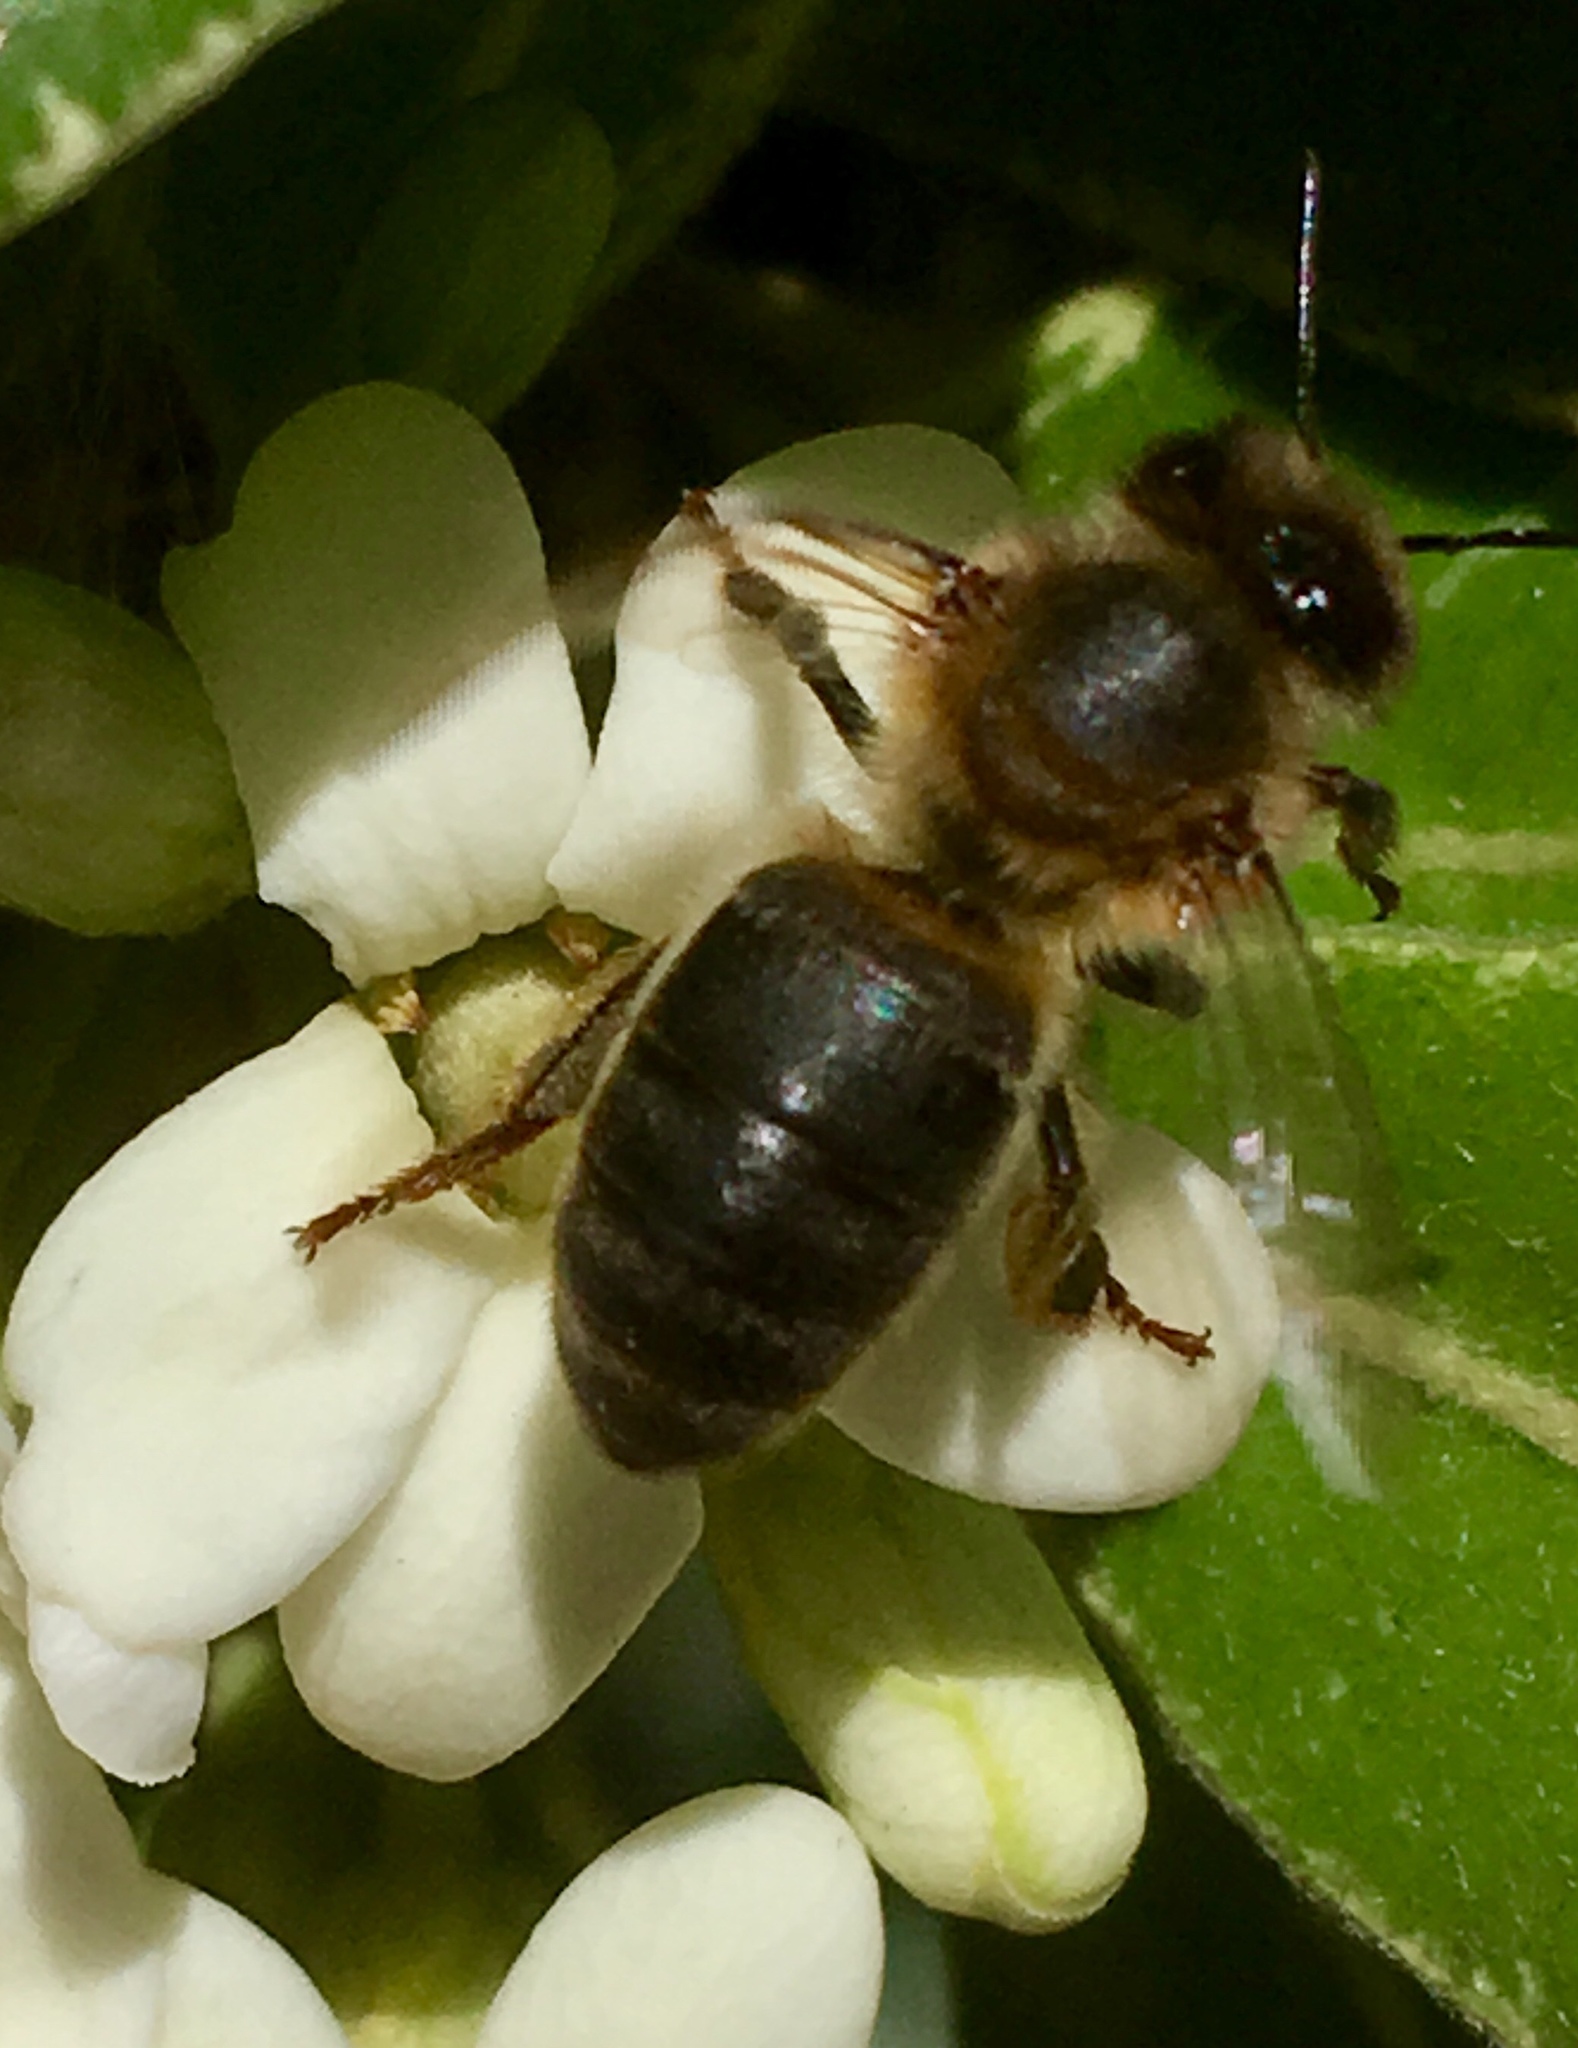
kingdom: Animalia
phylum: Arthropoda
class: Insecta
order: Hymenoptera
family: Apidae
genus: Apis
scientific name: Apis mellifera
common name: Honey bee
